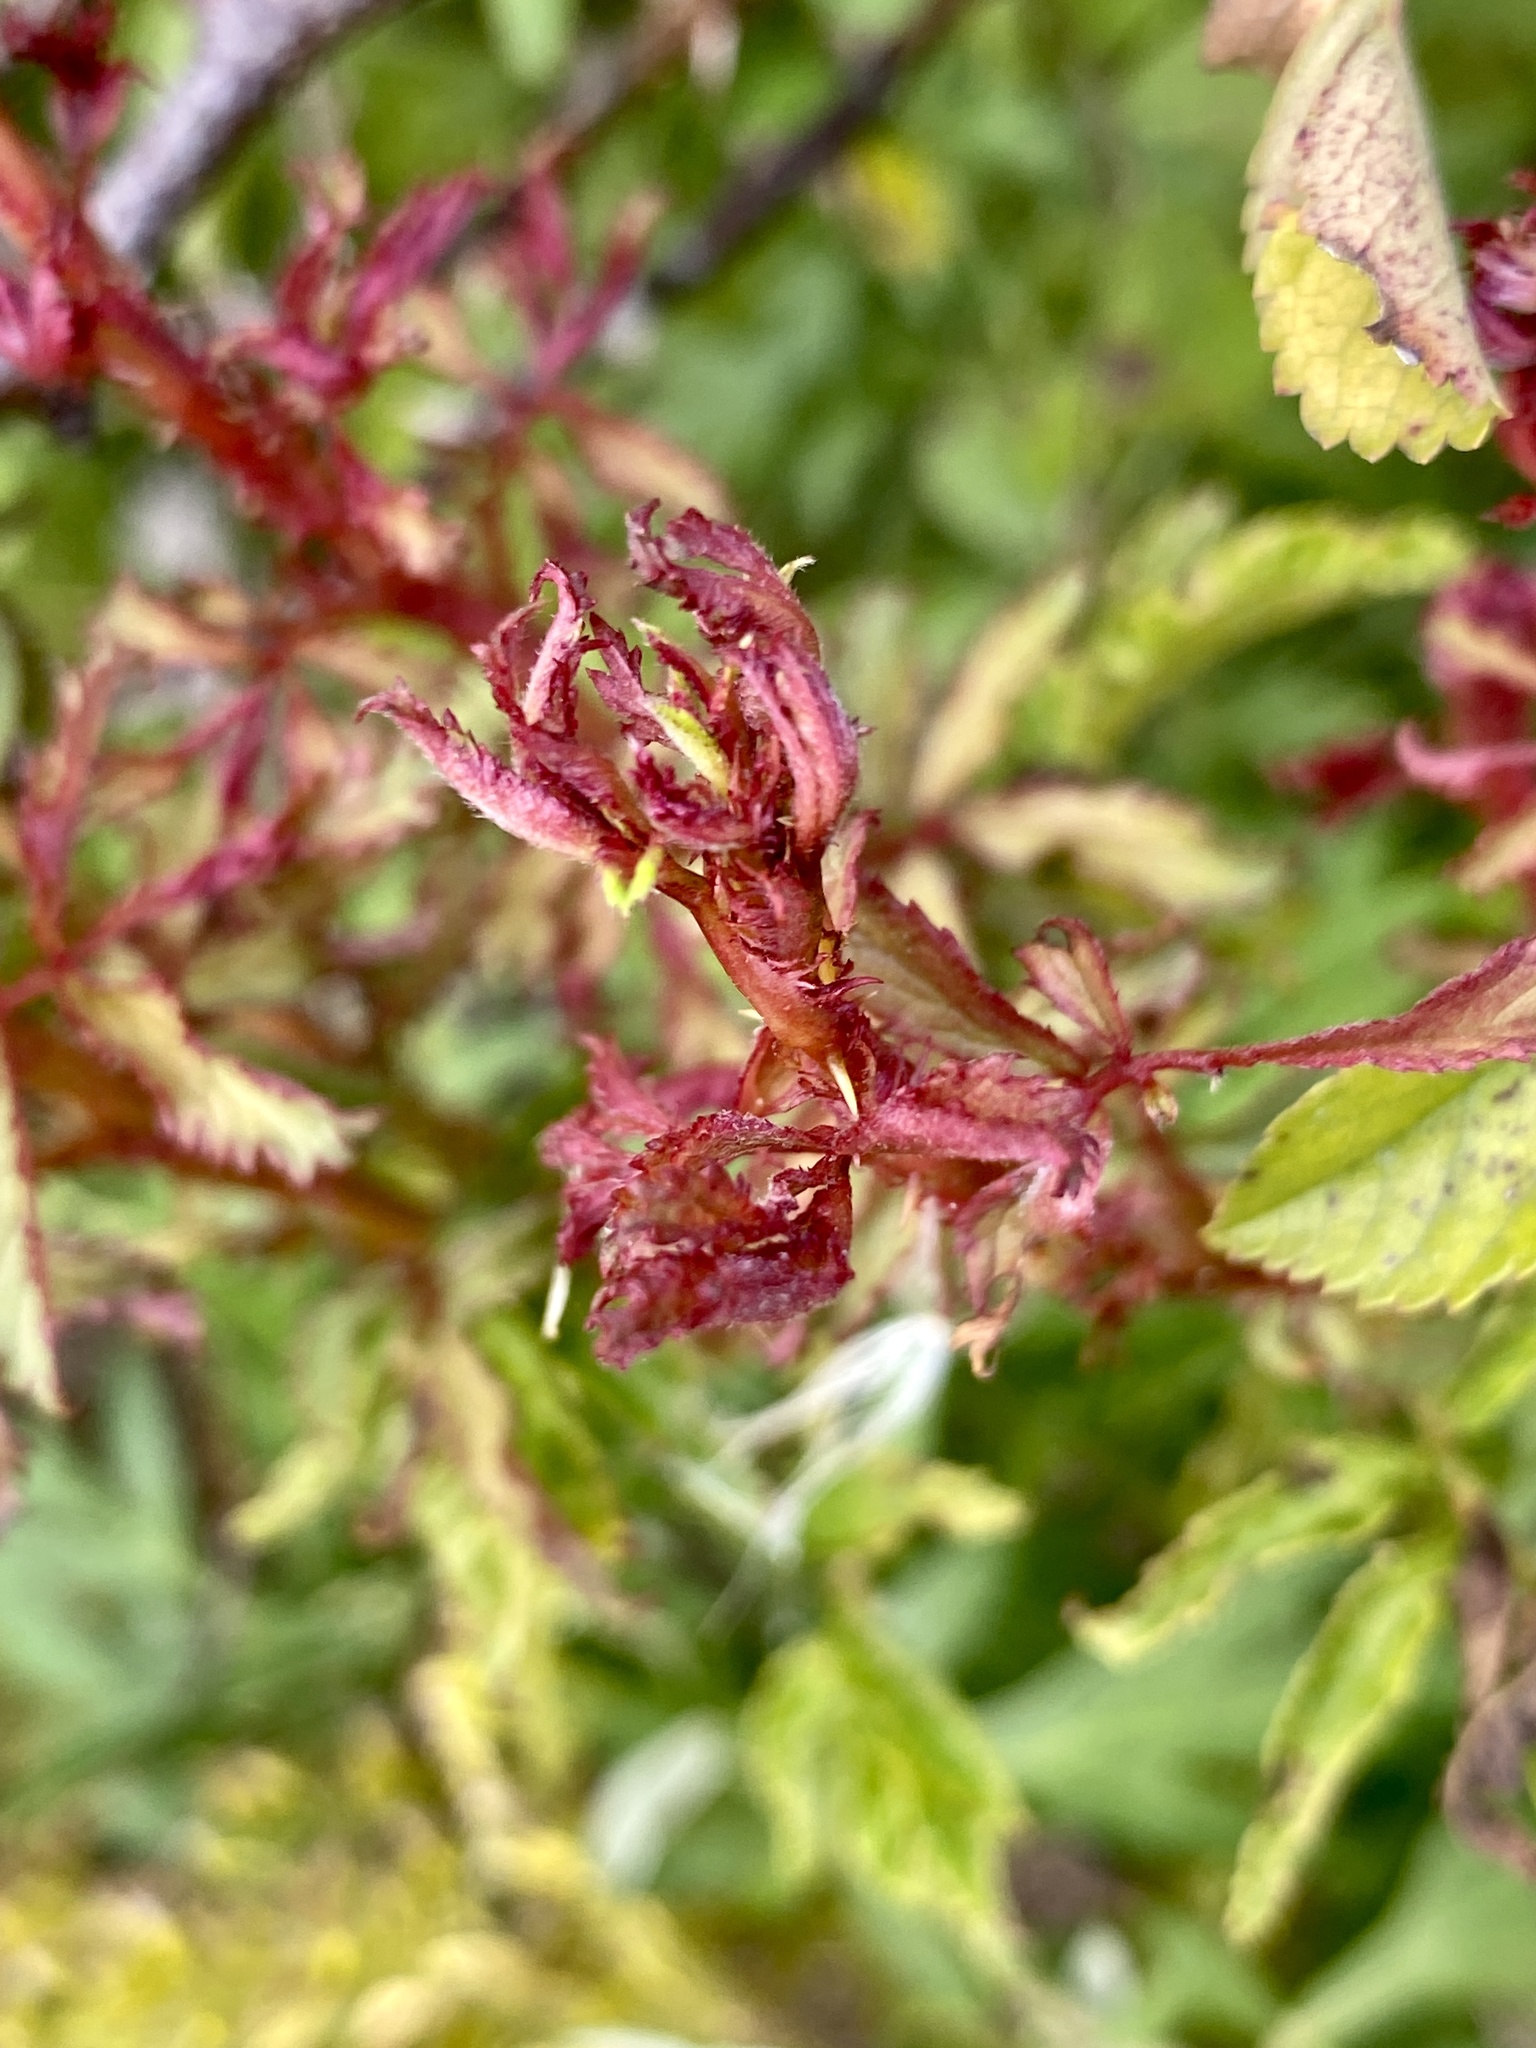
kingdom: Viruses
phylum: Negarnaviricota
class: Ellioviricetes
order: Bunyavirales
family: Fimoviridae
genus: Emaravirus
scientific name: Emaravirus rosae
